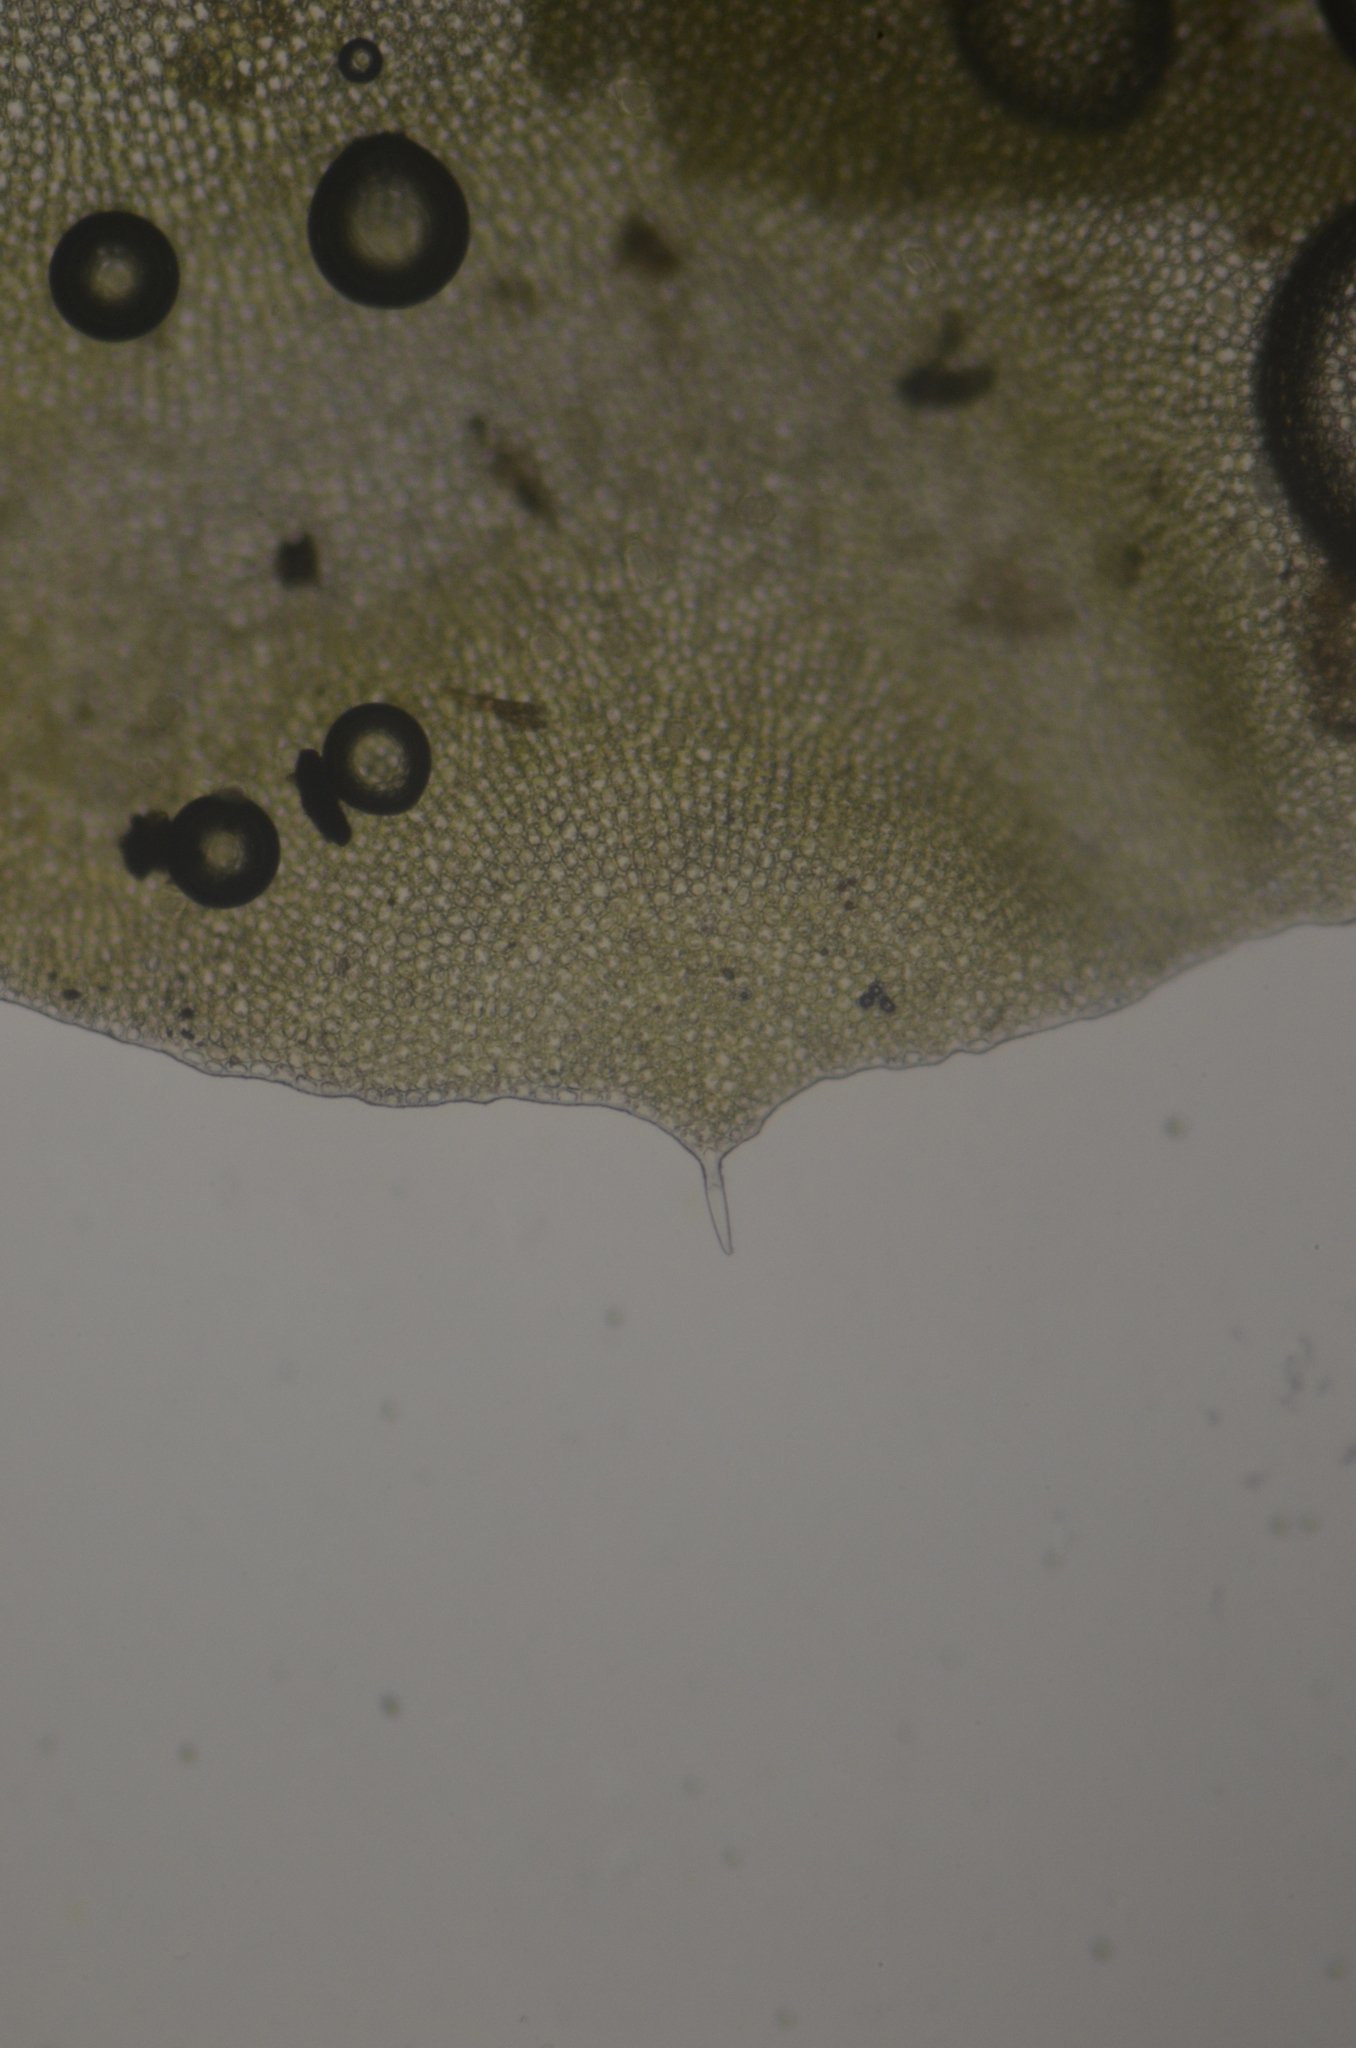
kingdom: Plantae
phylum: Marchantiophyta
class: Jungermanniopsida
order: Jungermanniales
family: Anastrophyllaceae
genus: Barbilophozia
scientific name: Barbilophozia lycopodioides
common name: Greater pawwort
